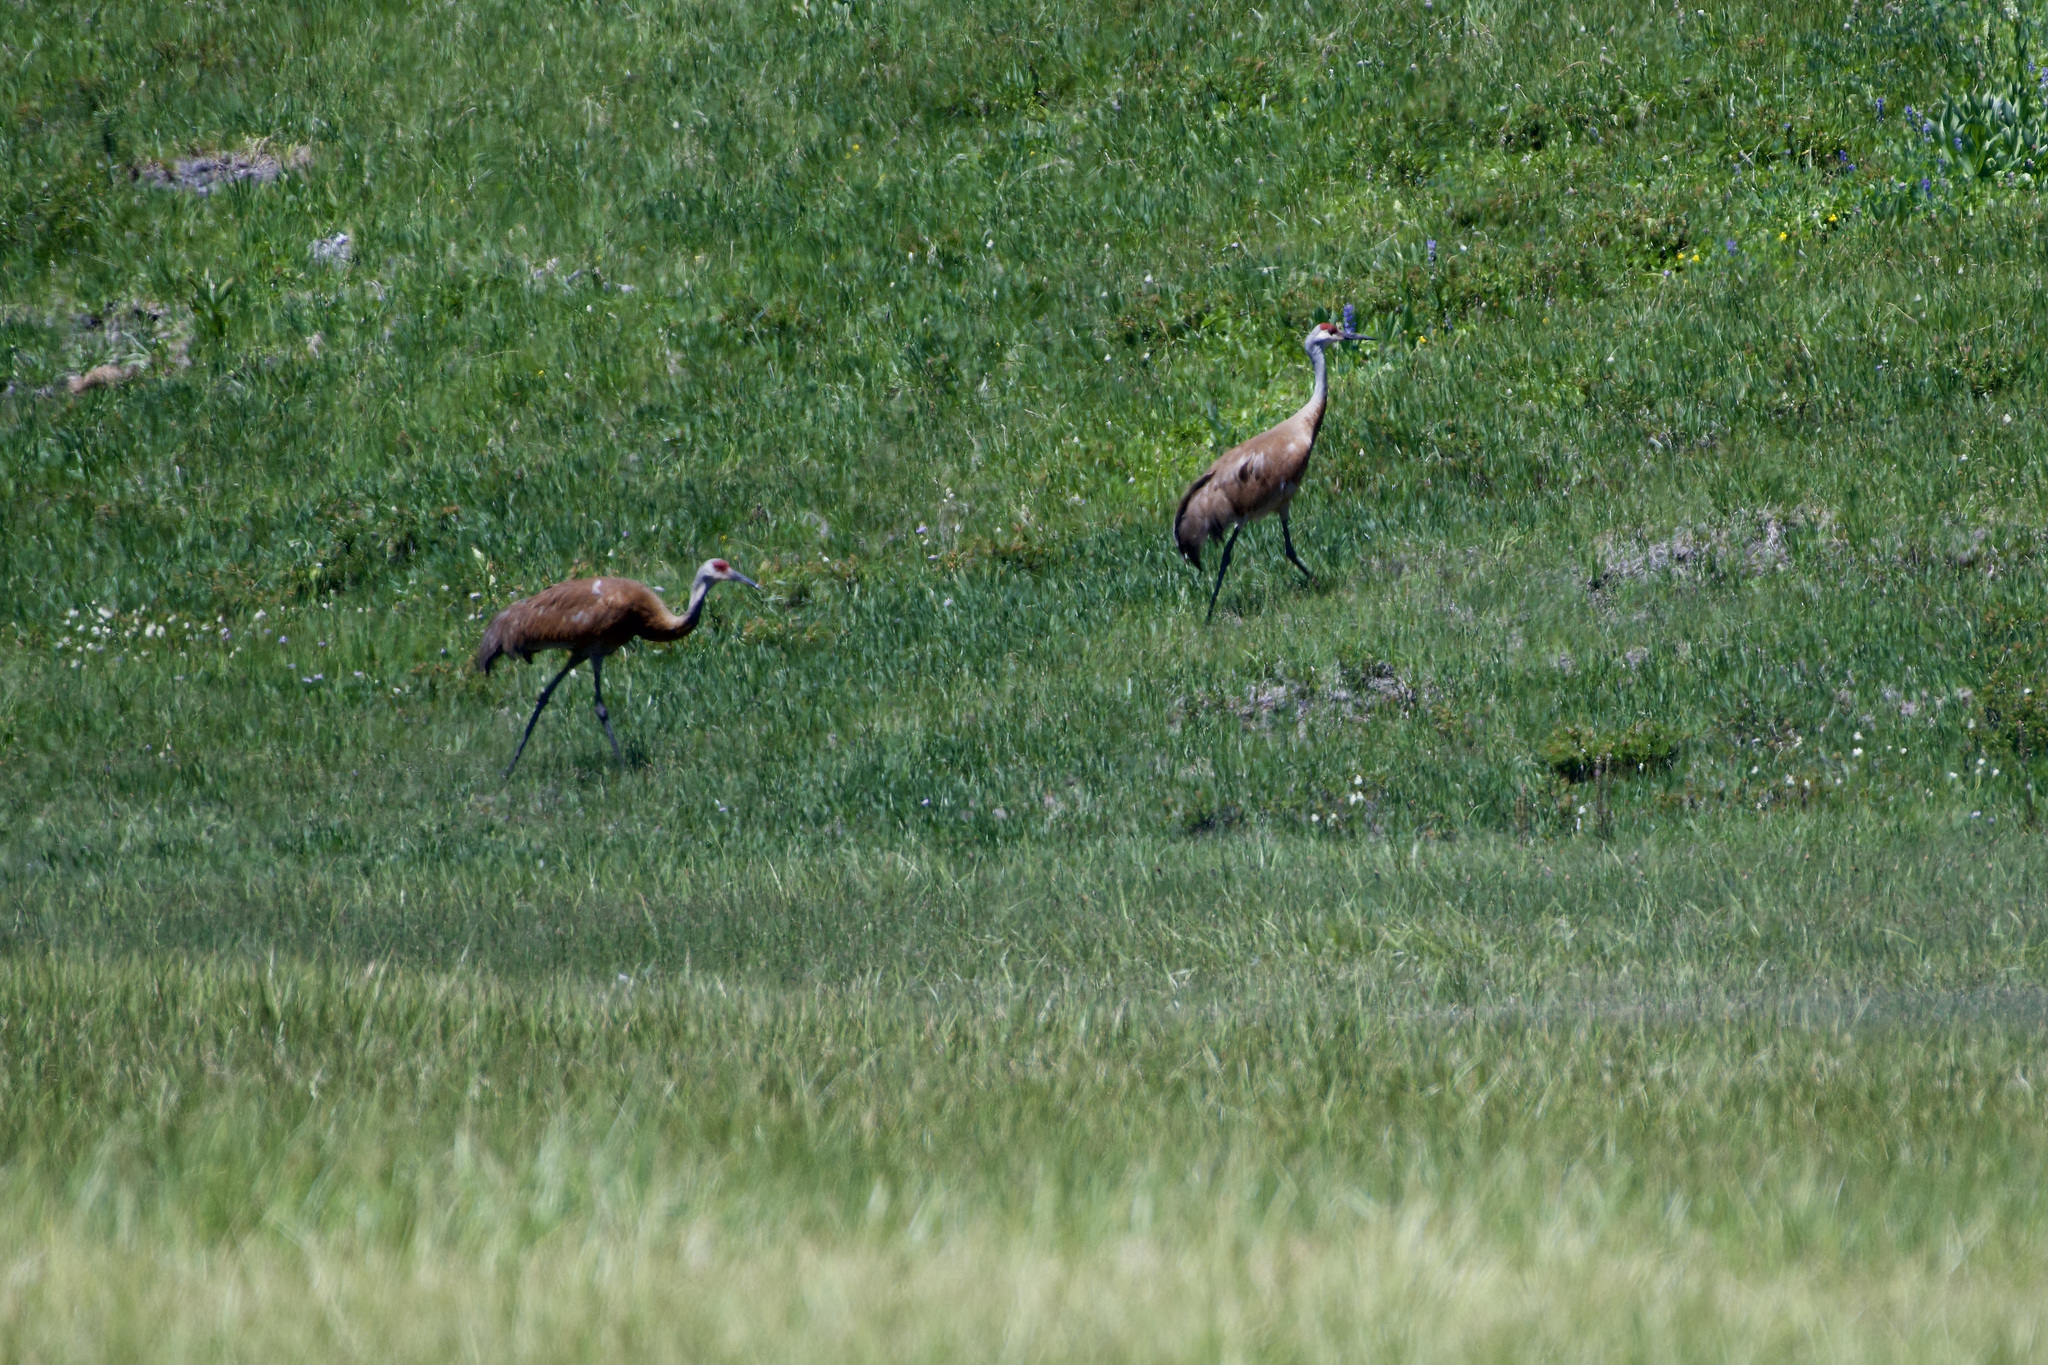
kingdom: Animalia
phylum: Chordata
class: Aves
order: Gruiformes
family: Gruidae
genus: Grus
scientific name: Grus canadensis
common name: Sandhill crane
